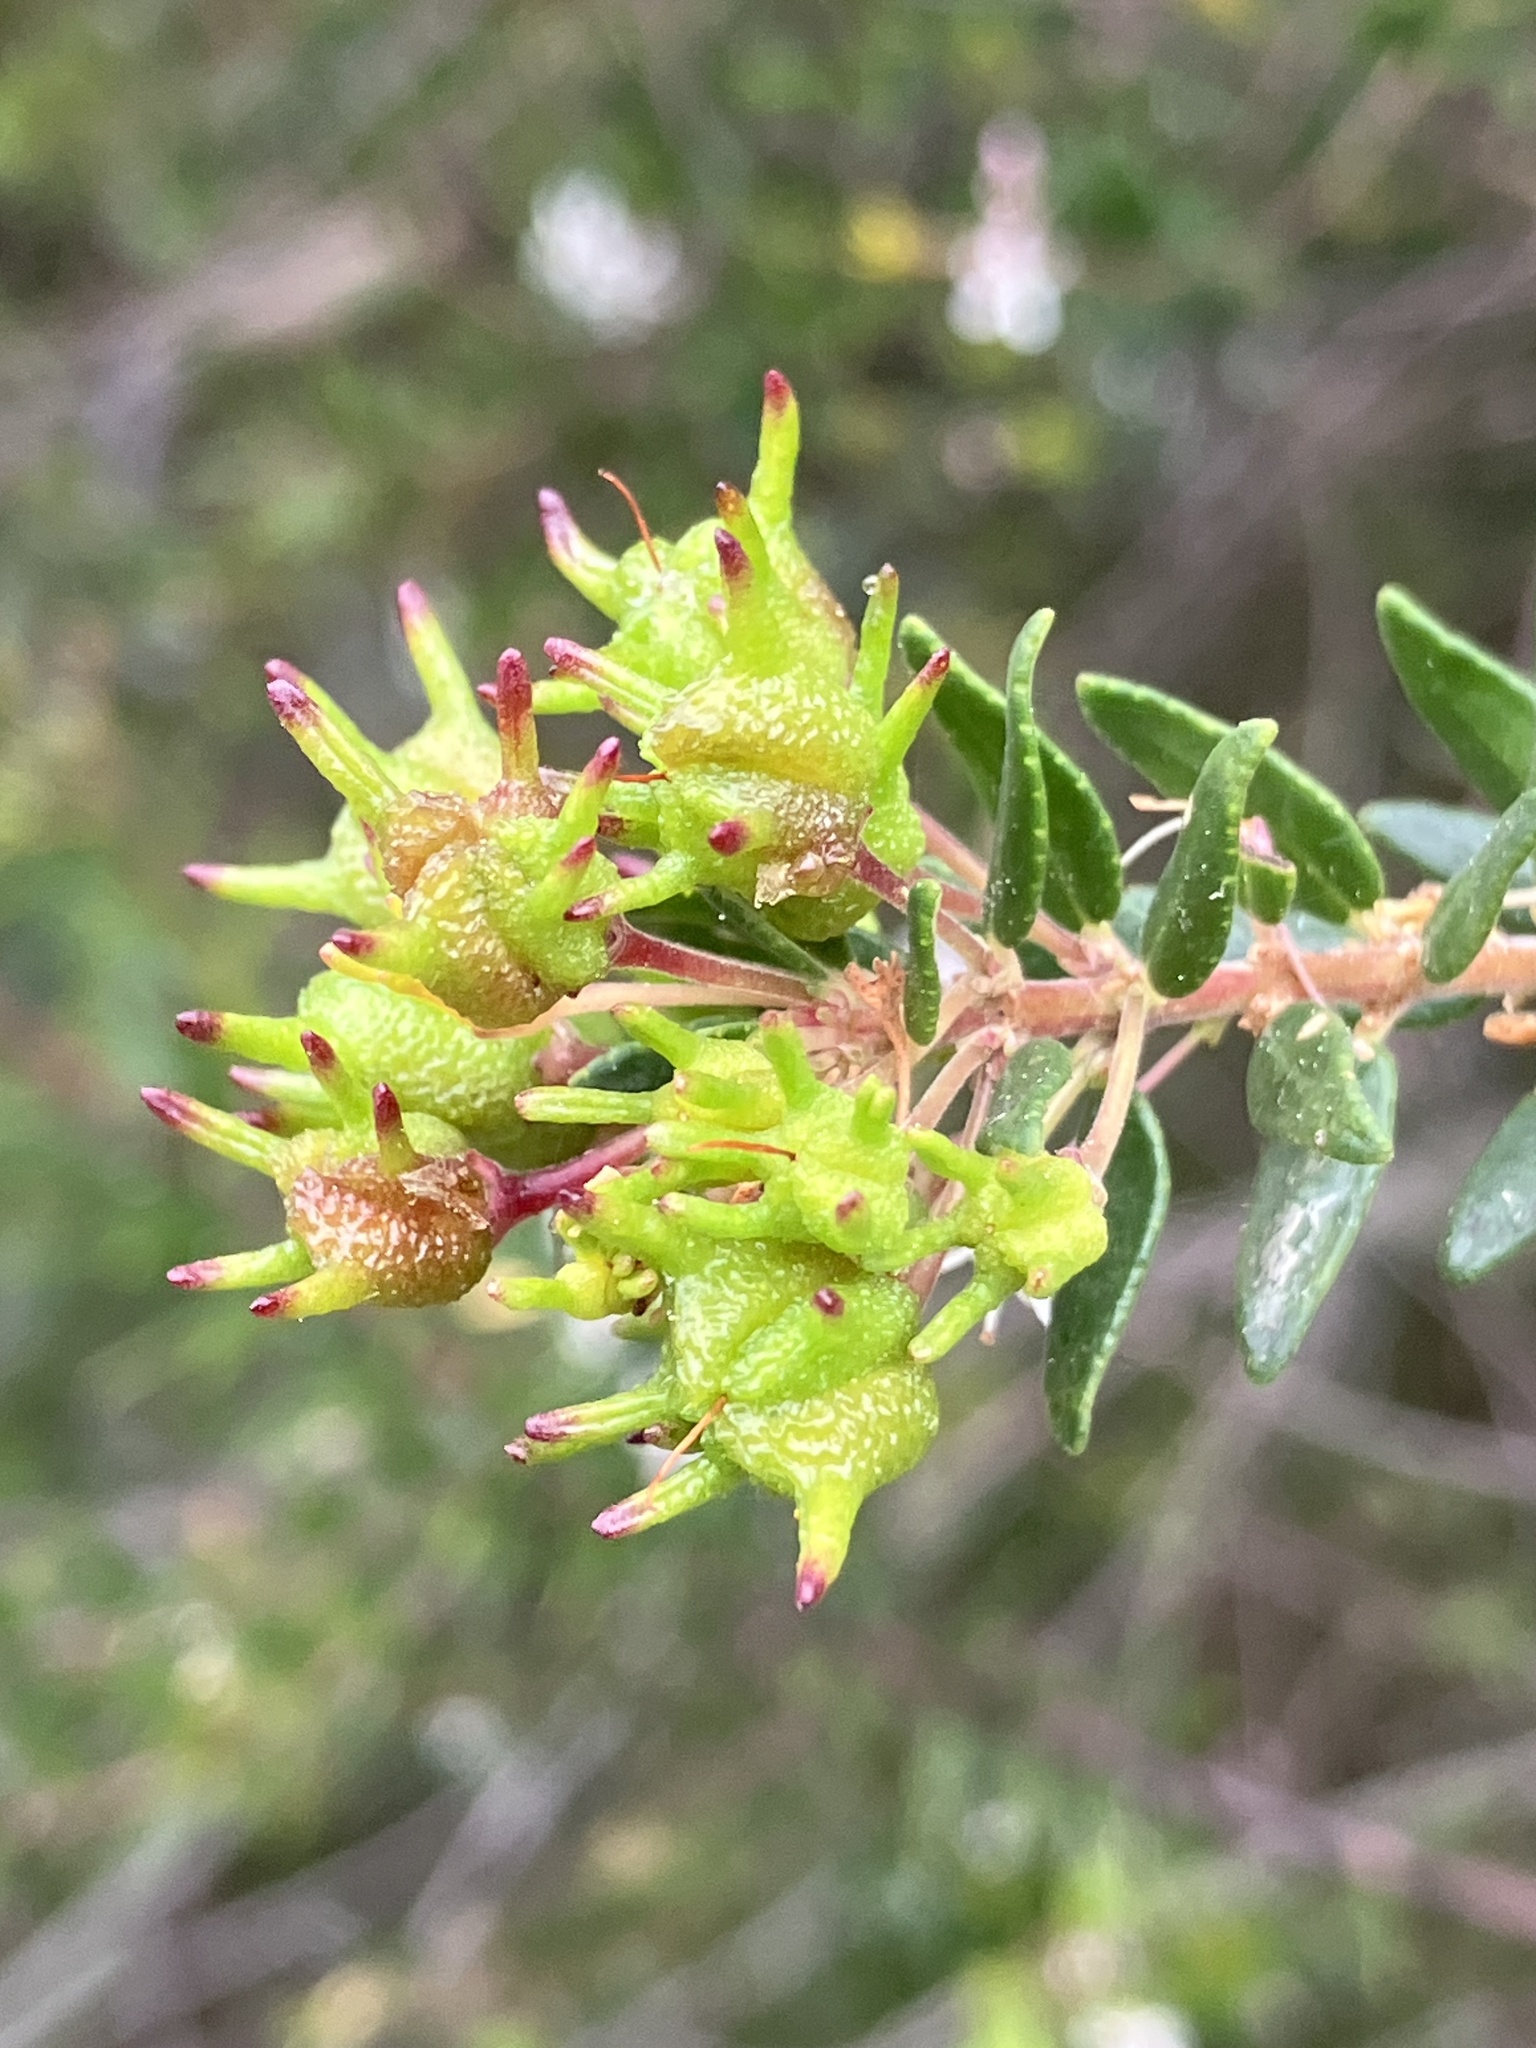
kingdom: Plantae
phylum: Tracheophyta
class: Magnoliopsida
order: Sapindales
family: Rutaceae
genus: Agathosma
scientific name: Agathosma ovata
